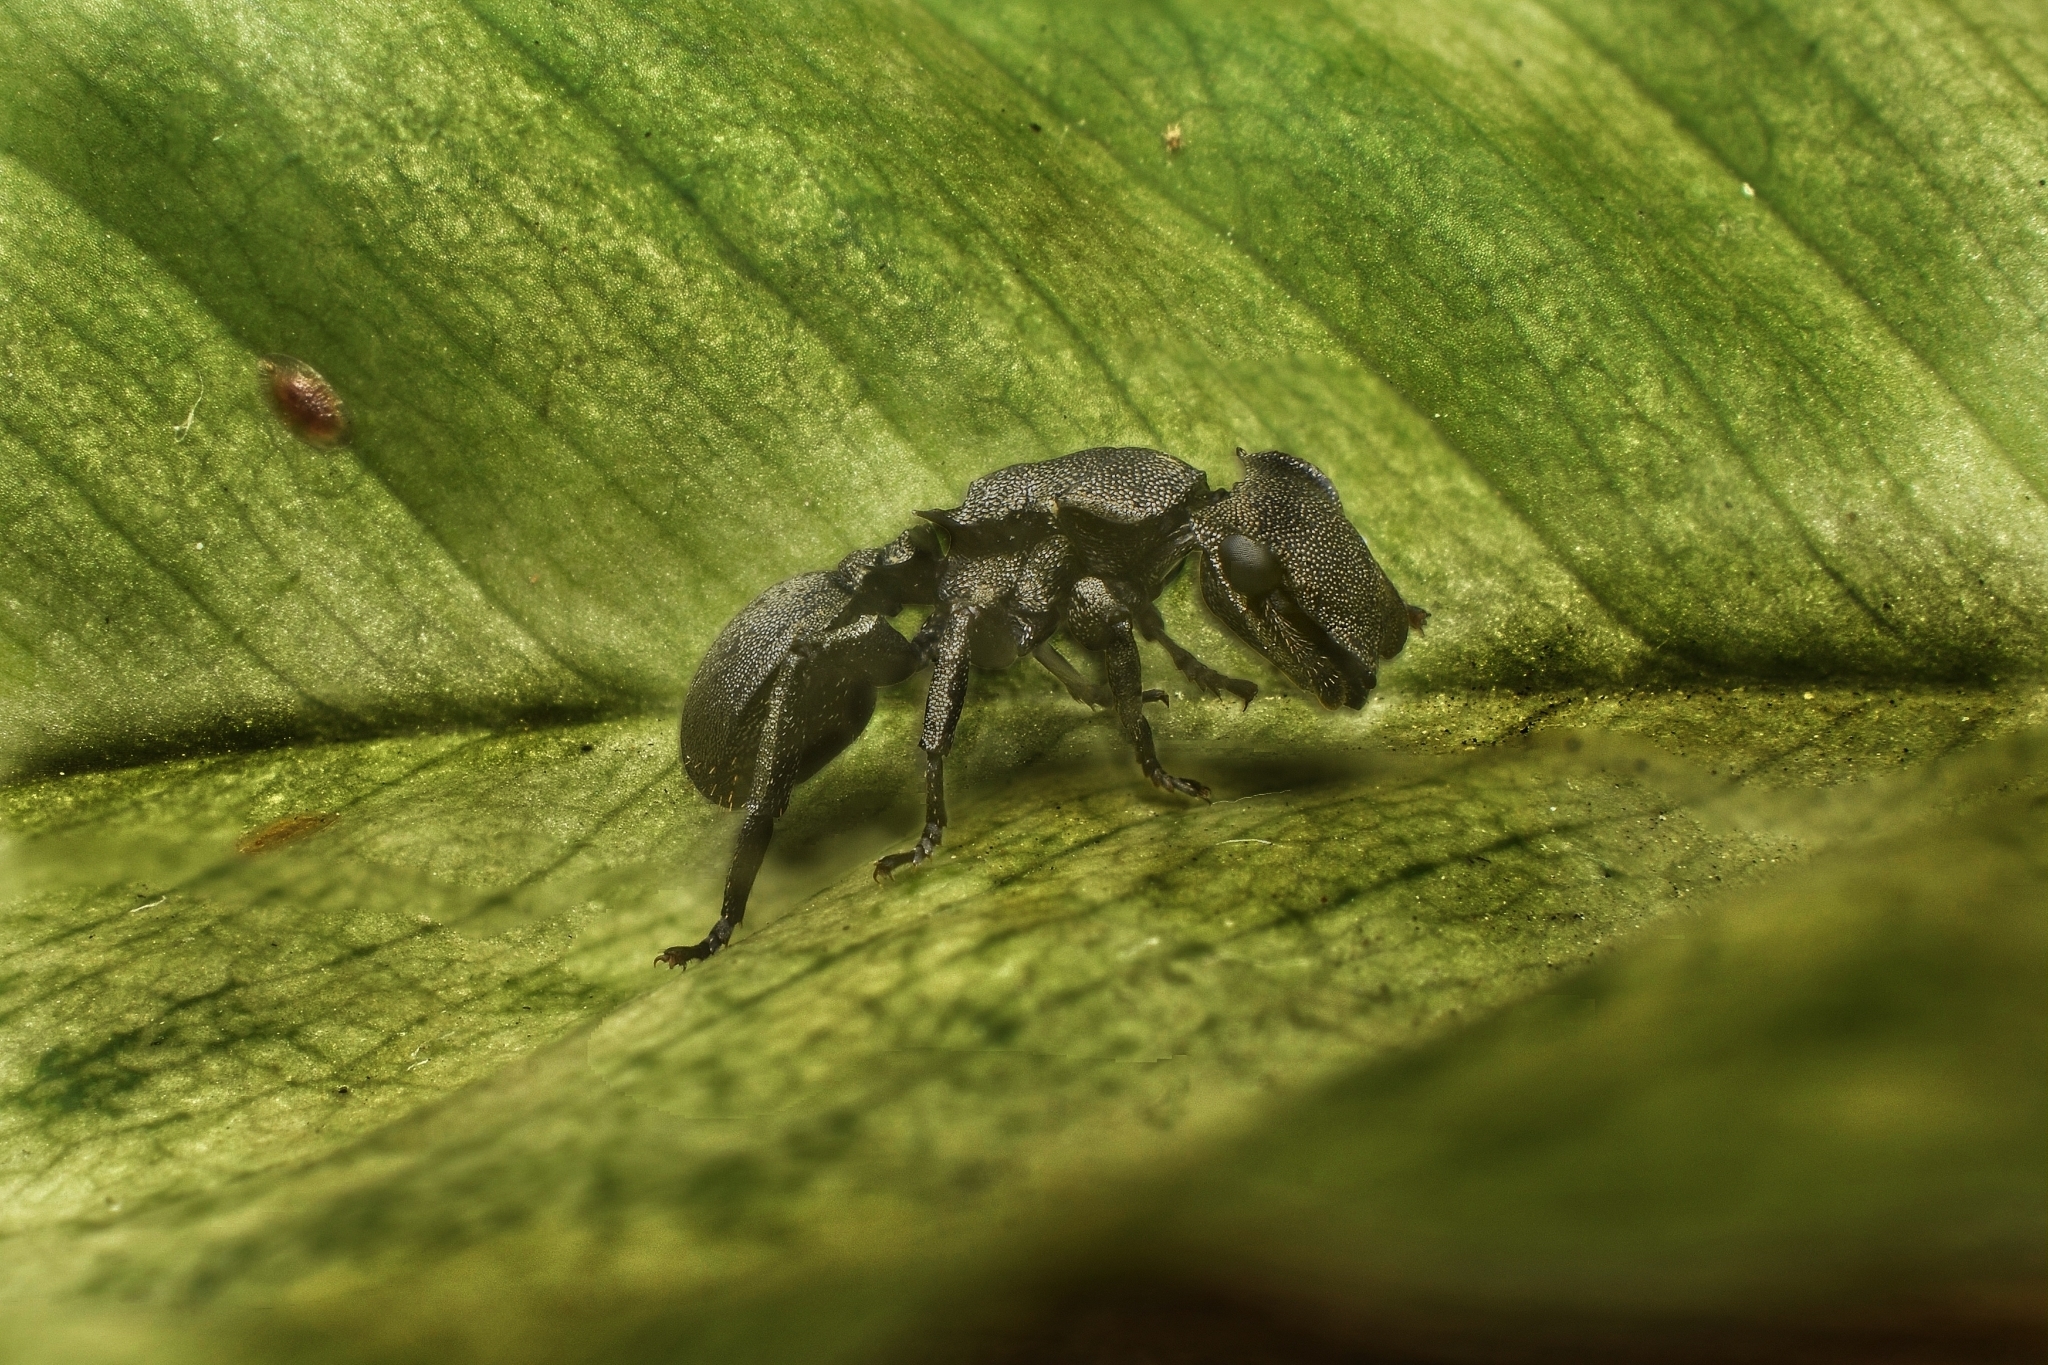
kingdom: Animalia
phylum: Arthropoda
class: Insecta
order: Hymenoptera
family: Formicidae
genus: Cephalotes
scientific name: Cephalotes basalis
